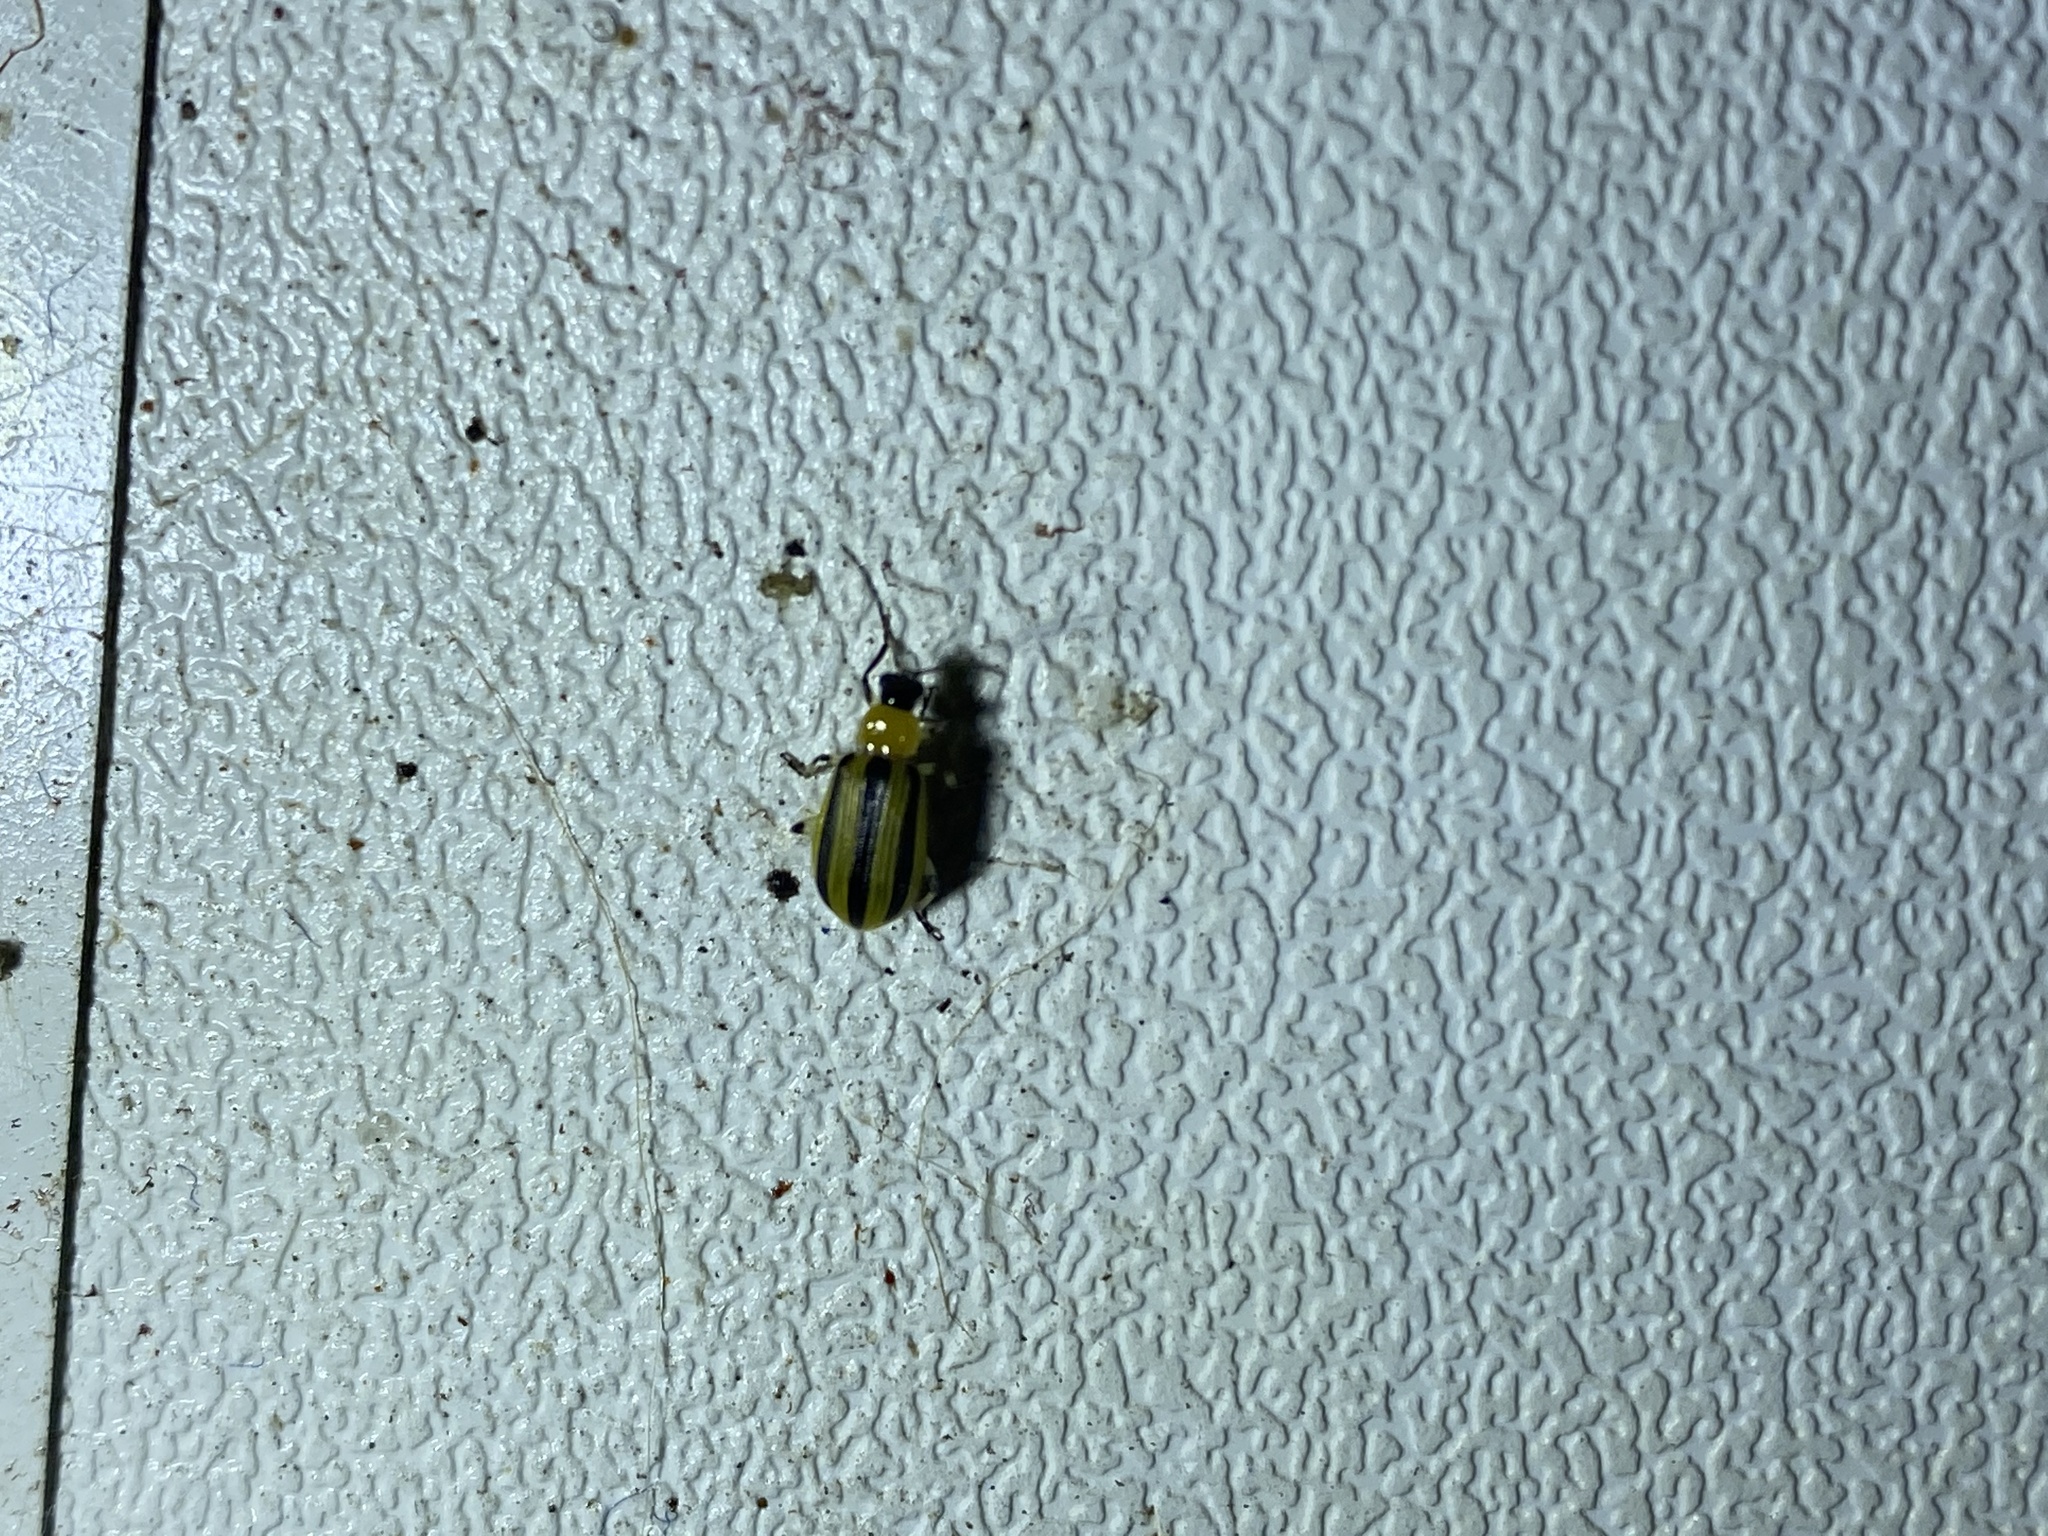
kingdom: Animalia
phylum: Arthropoda
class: Insecta
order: Coleoptera
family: Chrysomelidae
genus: Acalymma
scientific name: Acalymma vittatum
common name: Striped cucumber beetle
